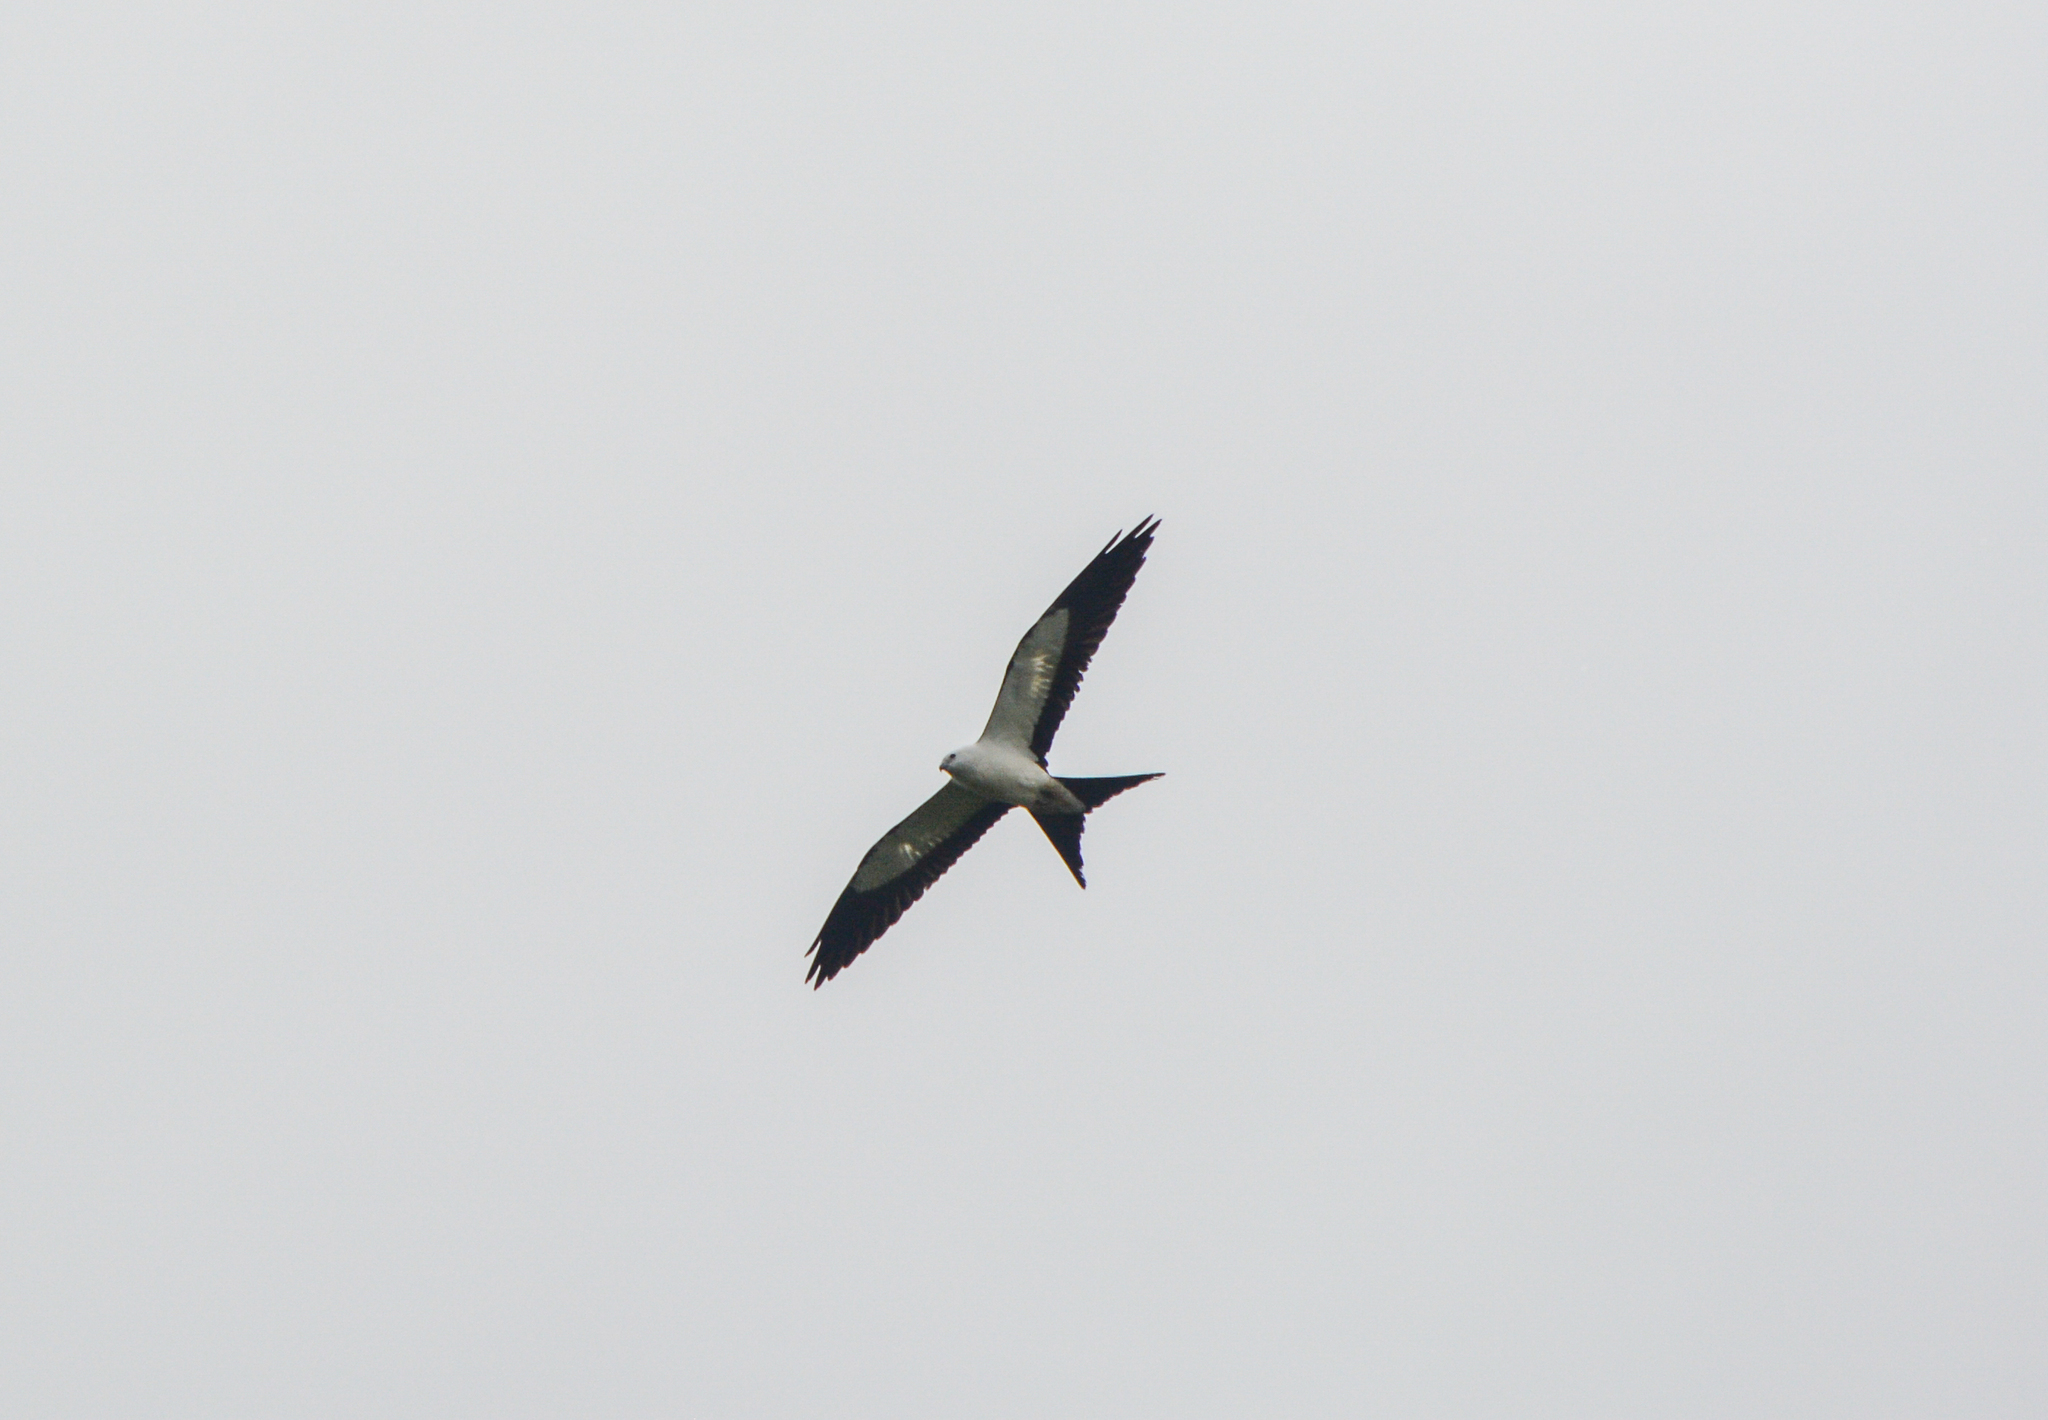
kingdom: Animalia
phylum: Chordata
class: Aves
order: Accipitriformes
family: Accipitridae
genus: Elanoides
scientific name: Elanoides forficatus
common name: Swallow-tailed kite
